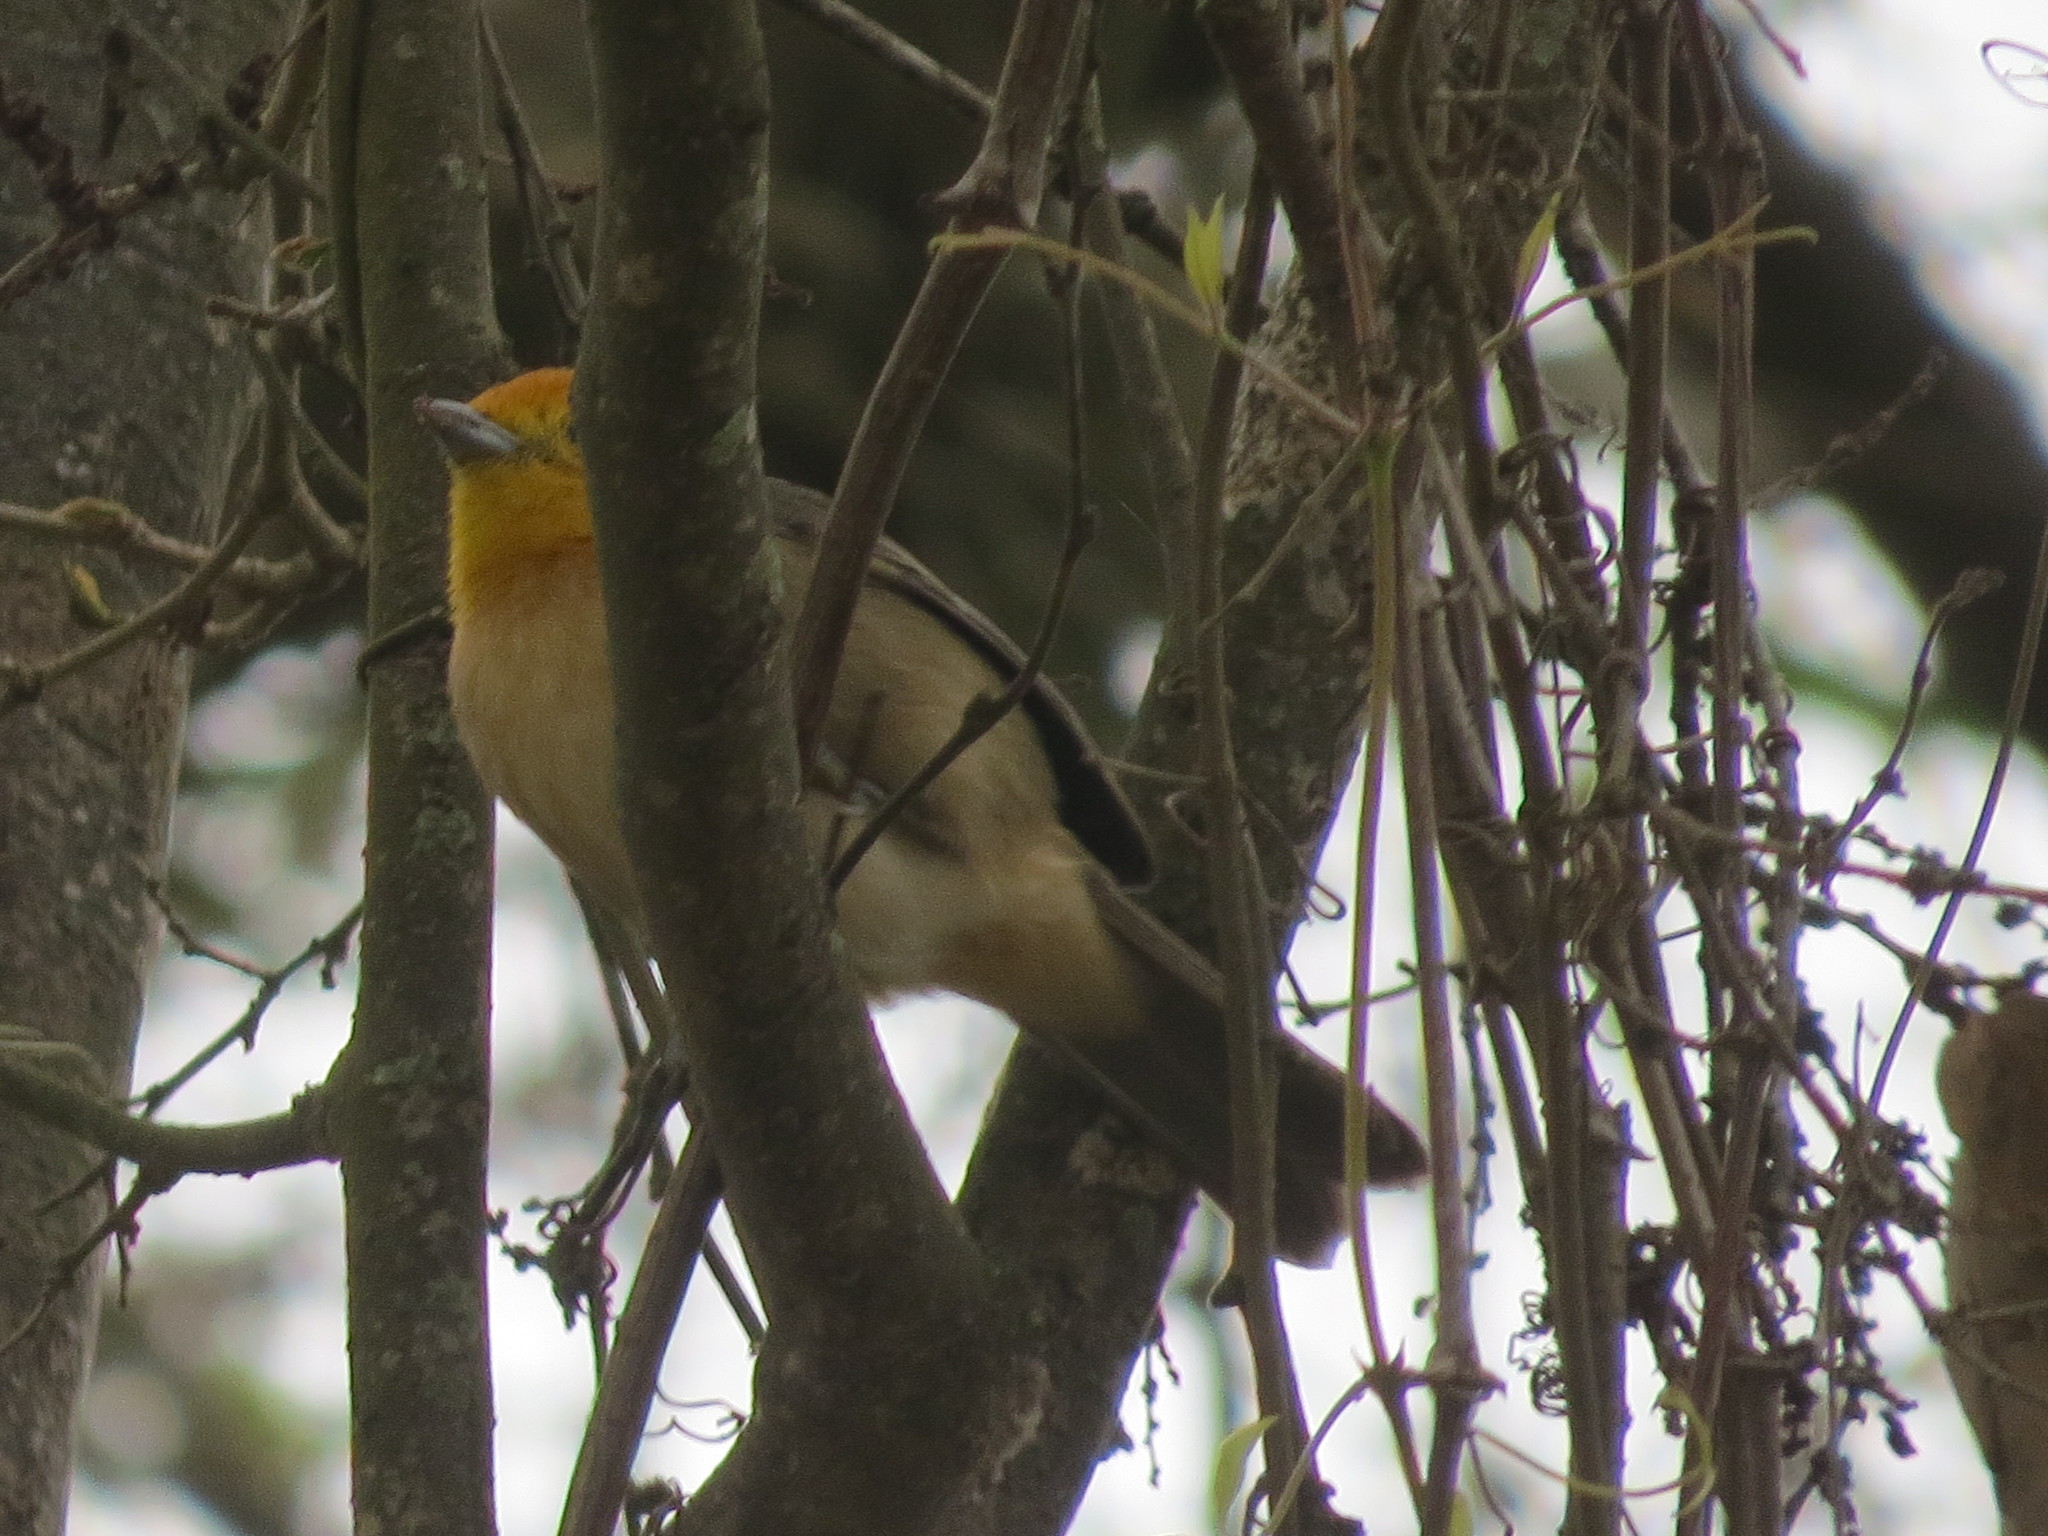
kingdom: Animalia
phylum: Chordata
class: Aves
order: Passeriformes
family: Thraupidae
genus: Thlypopsis
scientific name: Thlypopsis sordida
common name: Orange-headed tanager
